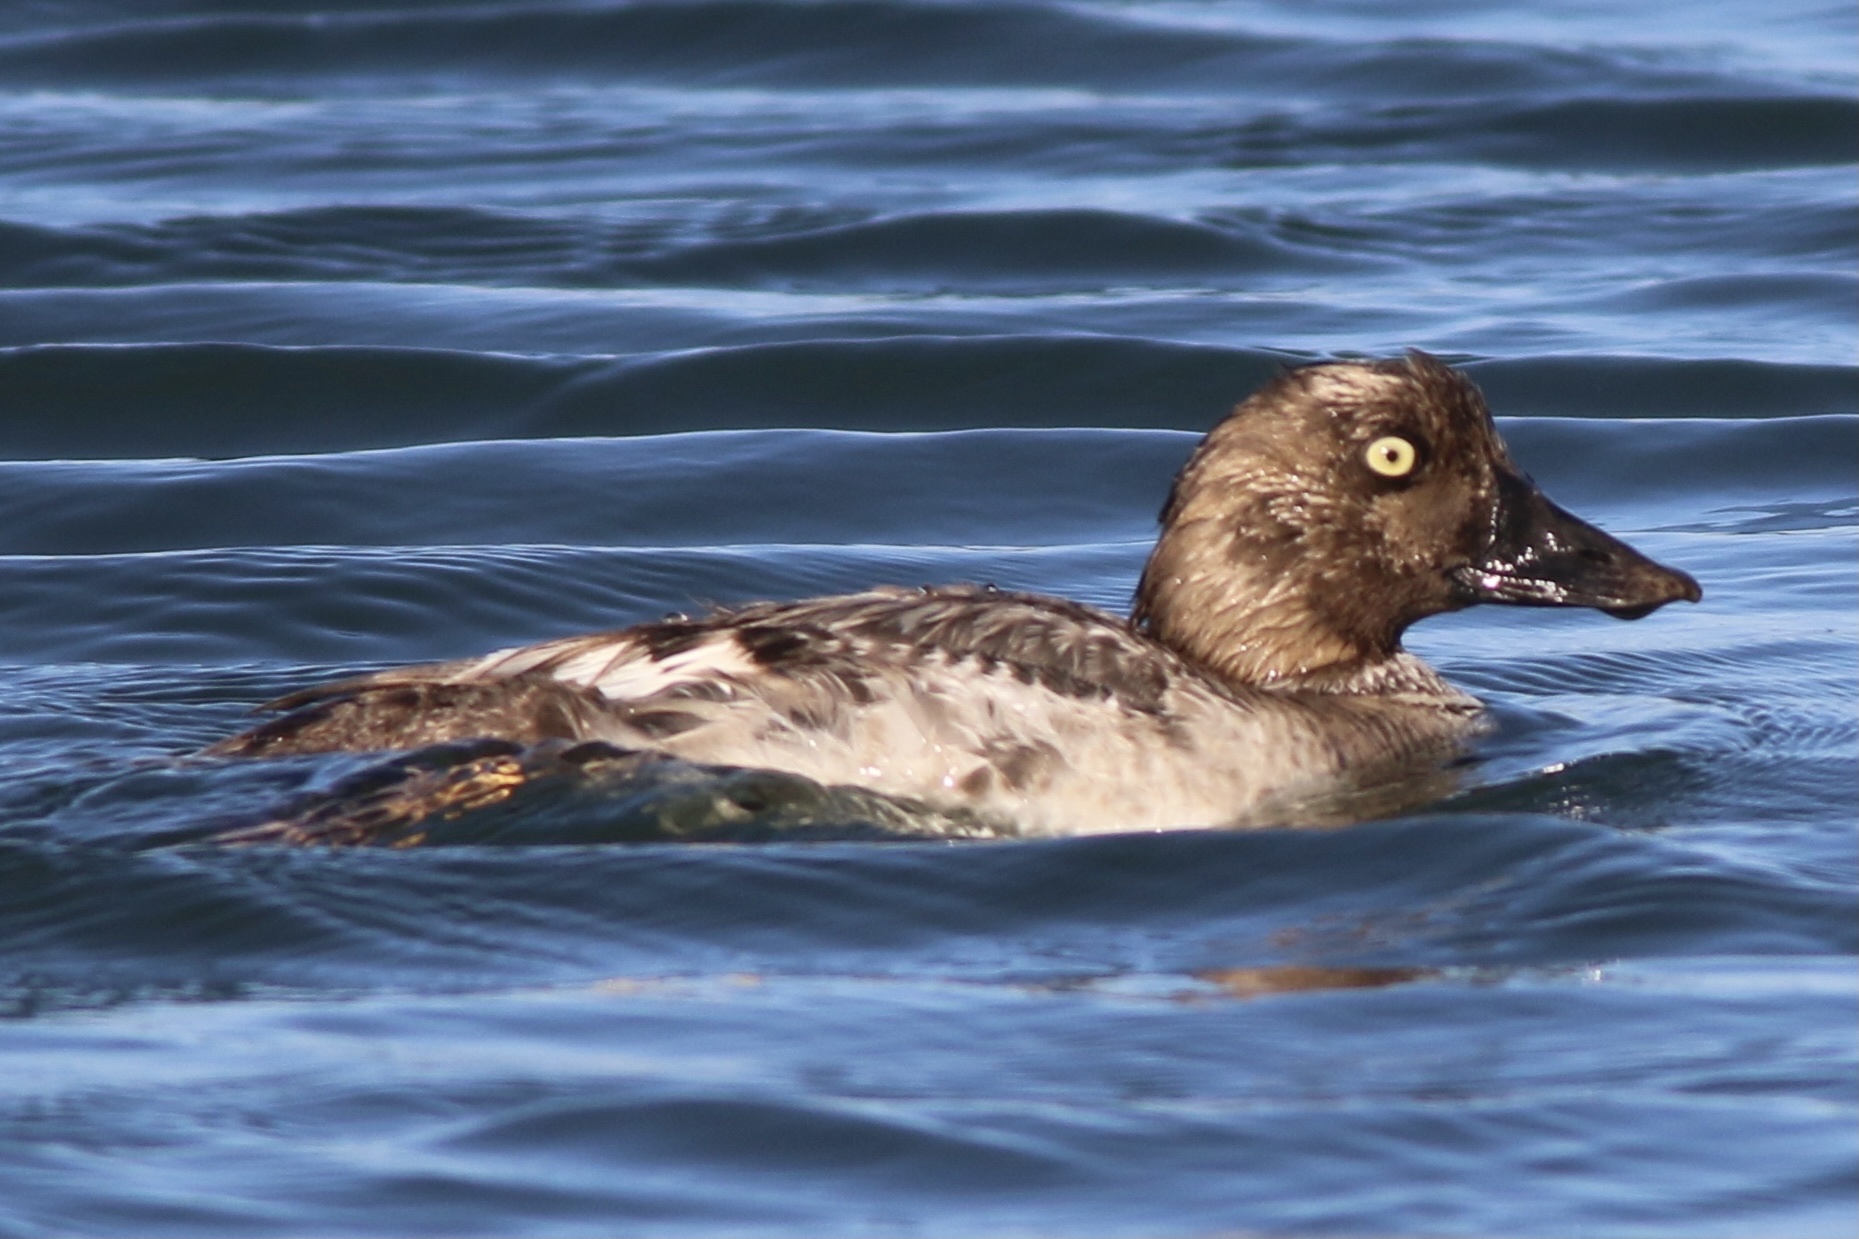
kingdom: Animalia
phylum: Chordata
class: Aves
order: Anseriformes
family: Anatidae
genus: Bucephala
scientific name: Bucephala clangula
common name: Common goldeneye
